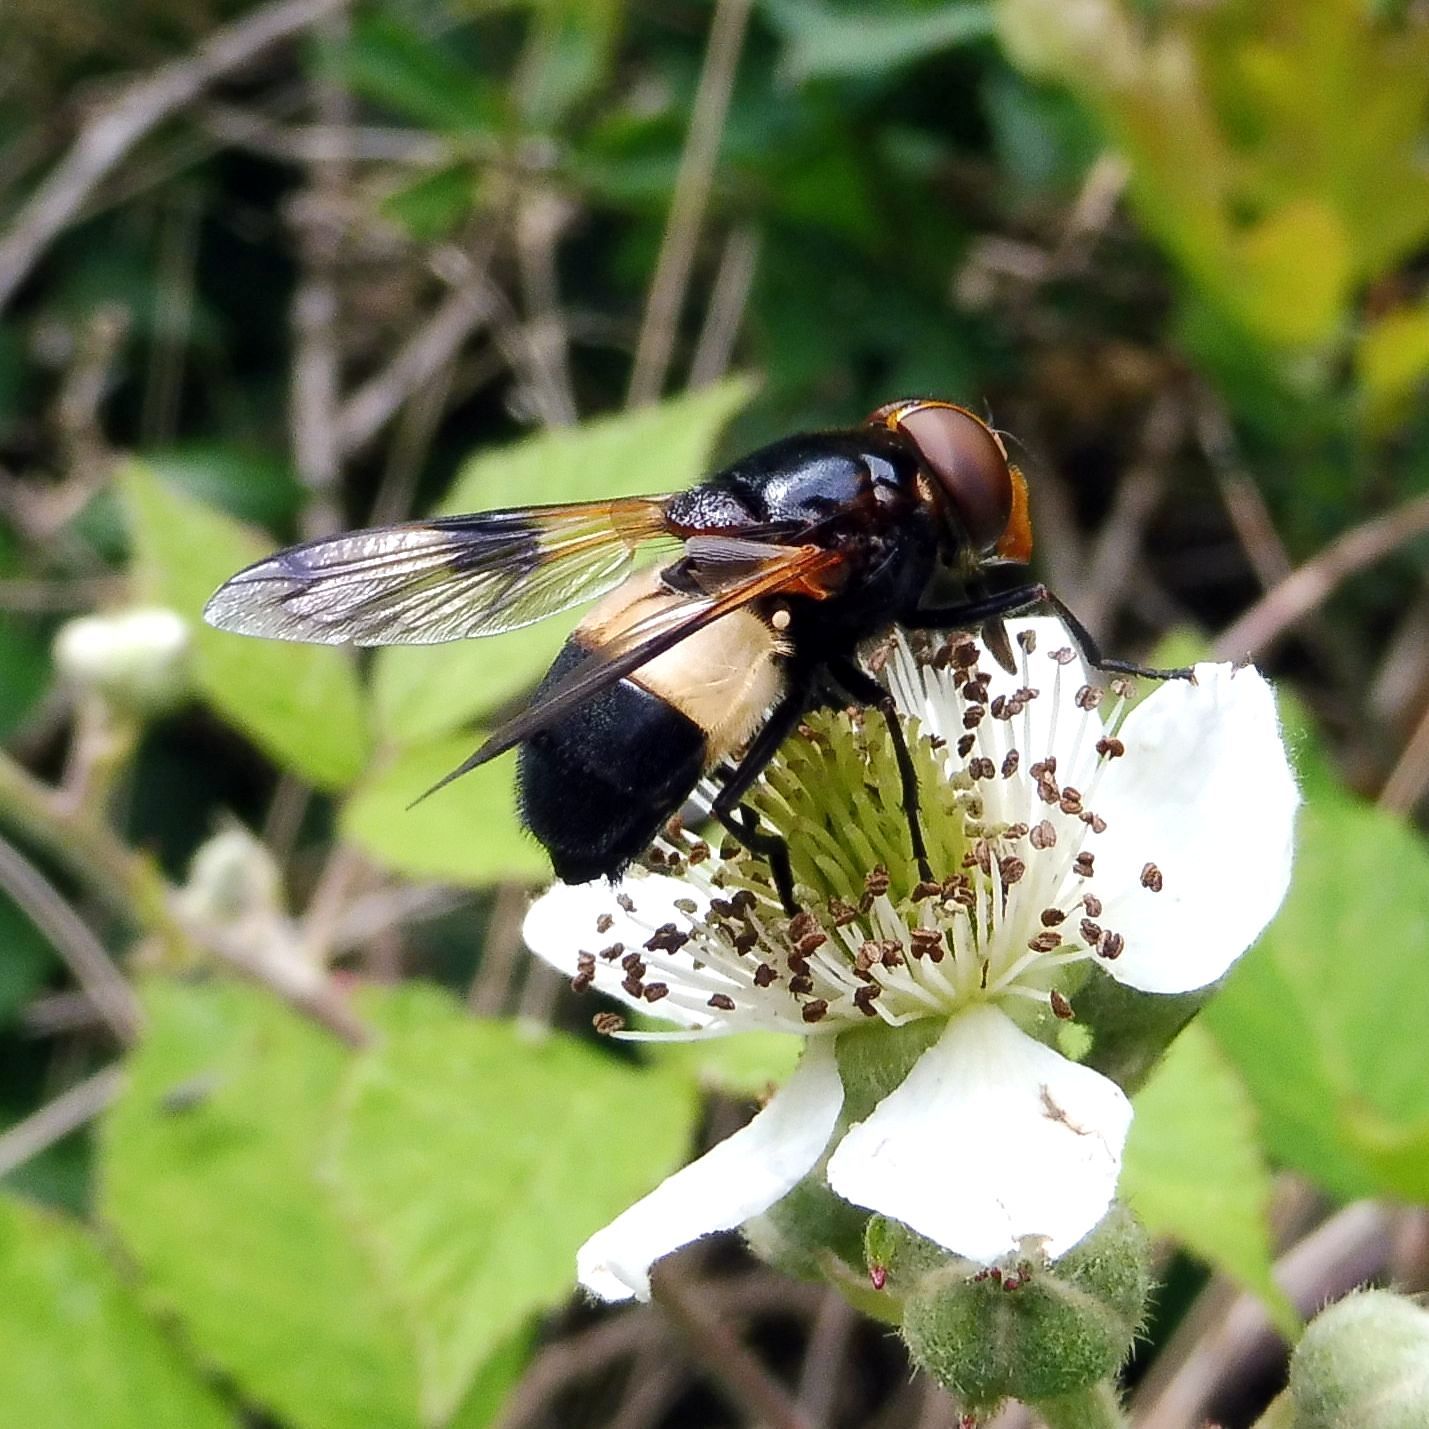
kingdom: Animalia
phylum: Arthropoda
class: Insecta
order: Diptera
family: Syrphidae
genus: Volucella
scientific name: Volucella pellucens
